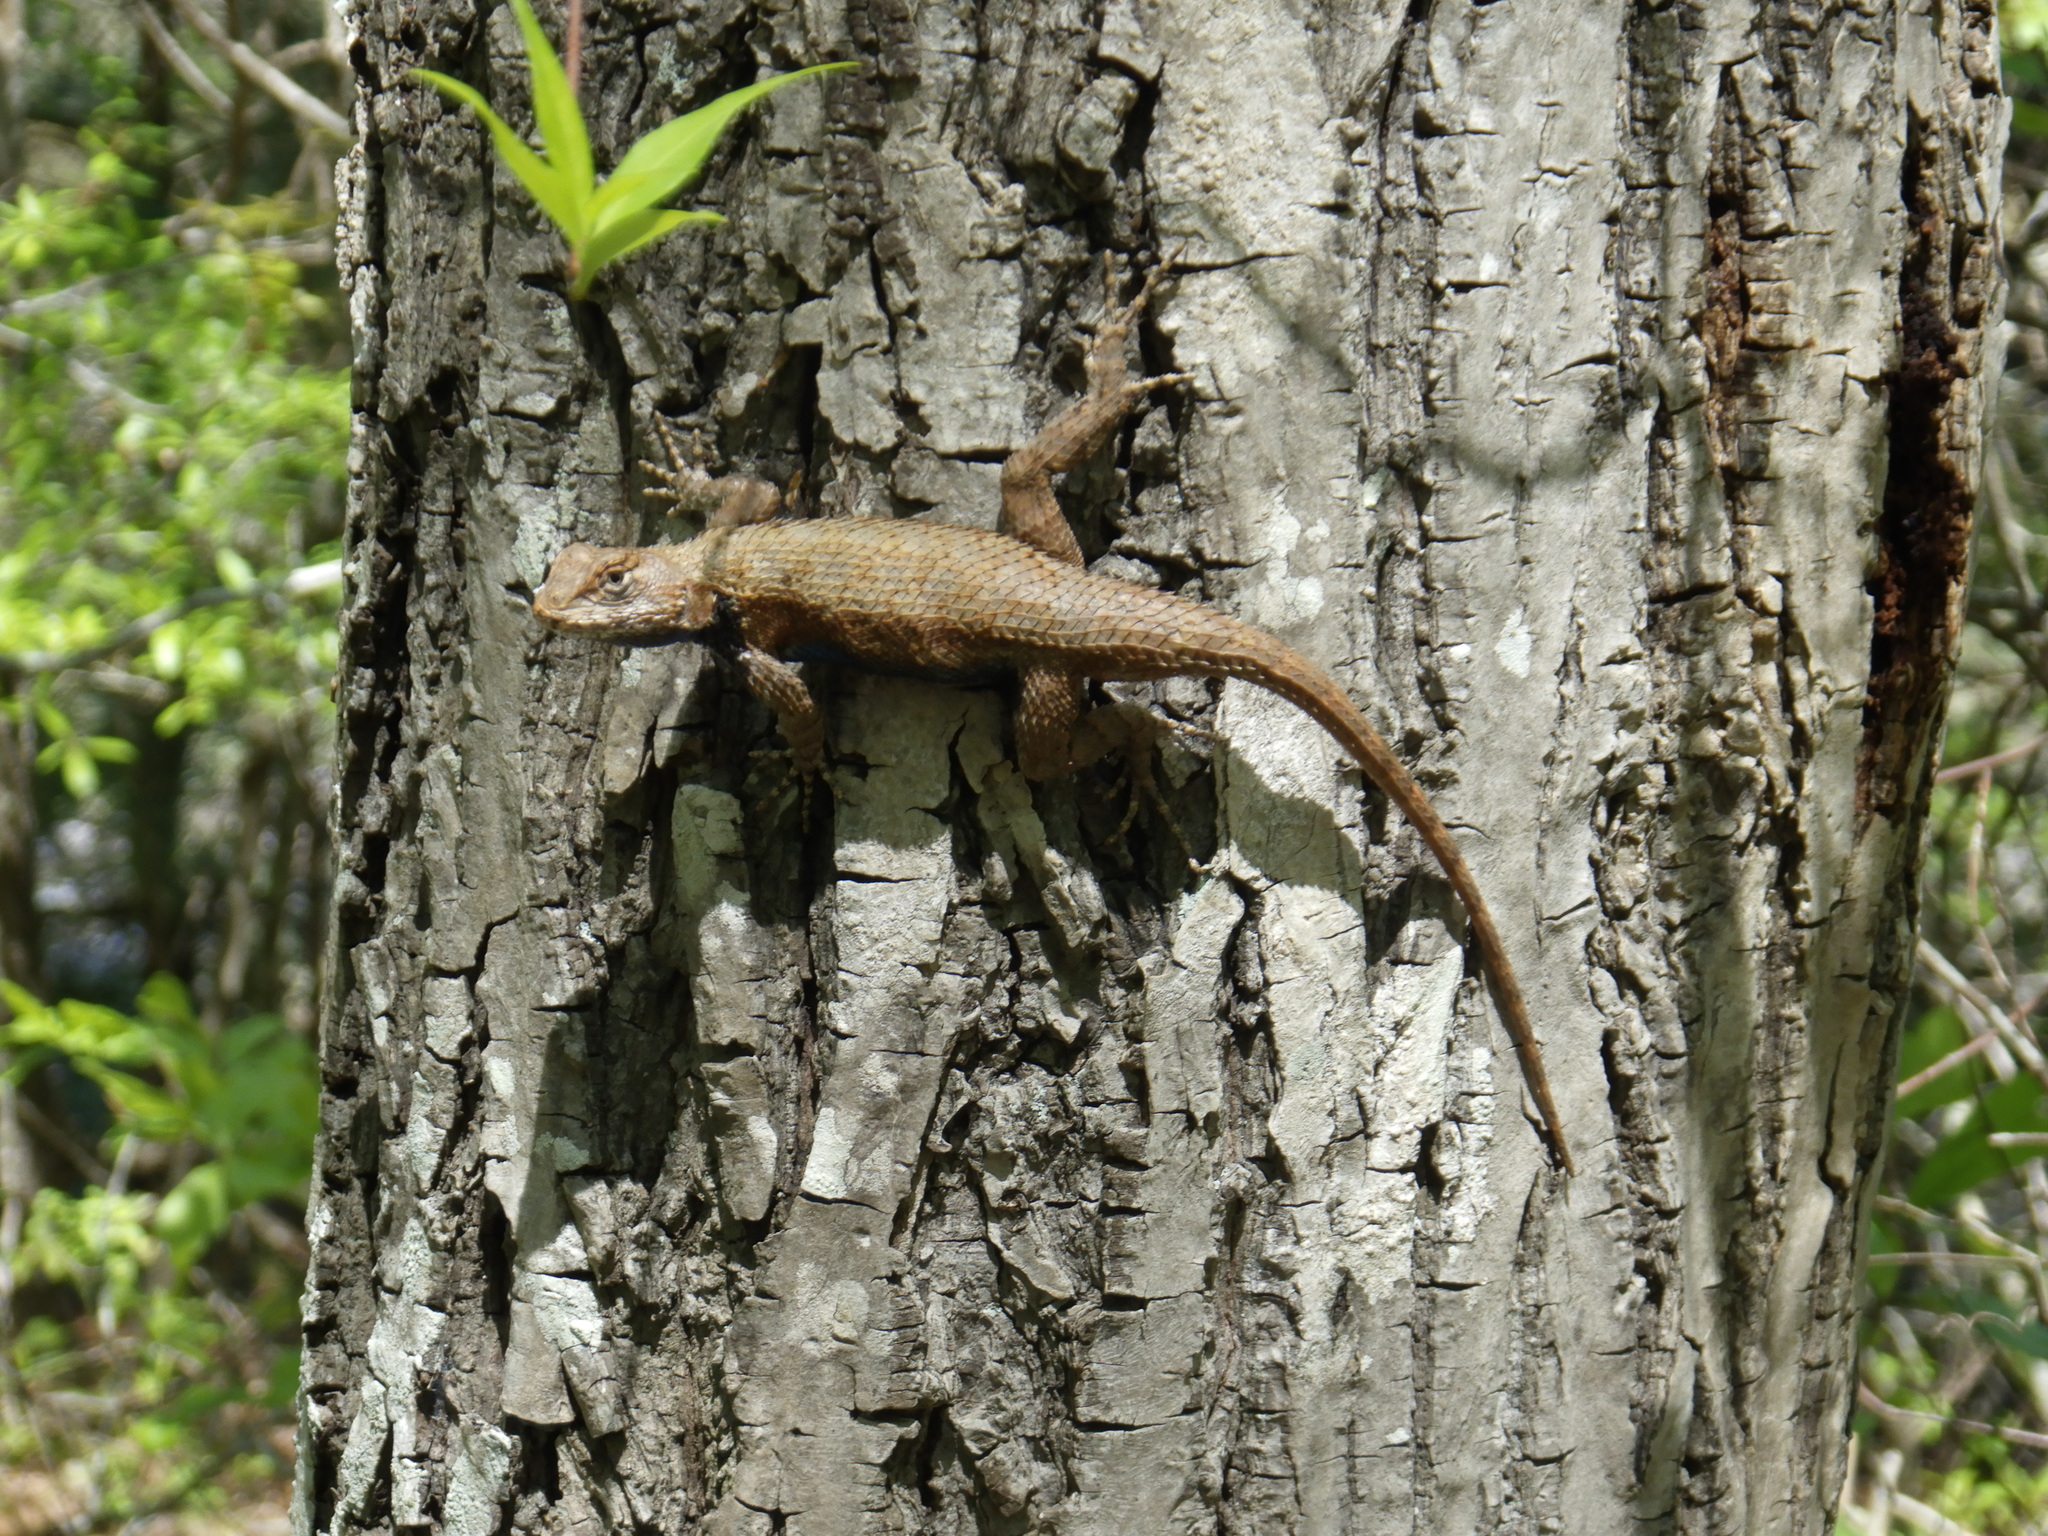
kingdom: Animalia
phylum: Chordata
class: Squamata
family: Phrynosomatidae
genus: Sceloporus
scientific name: Sceloporus undulatus
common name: Eastern fence lizard
